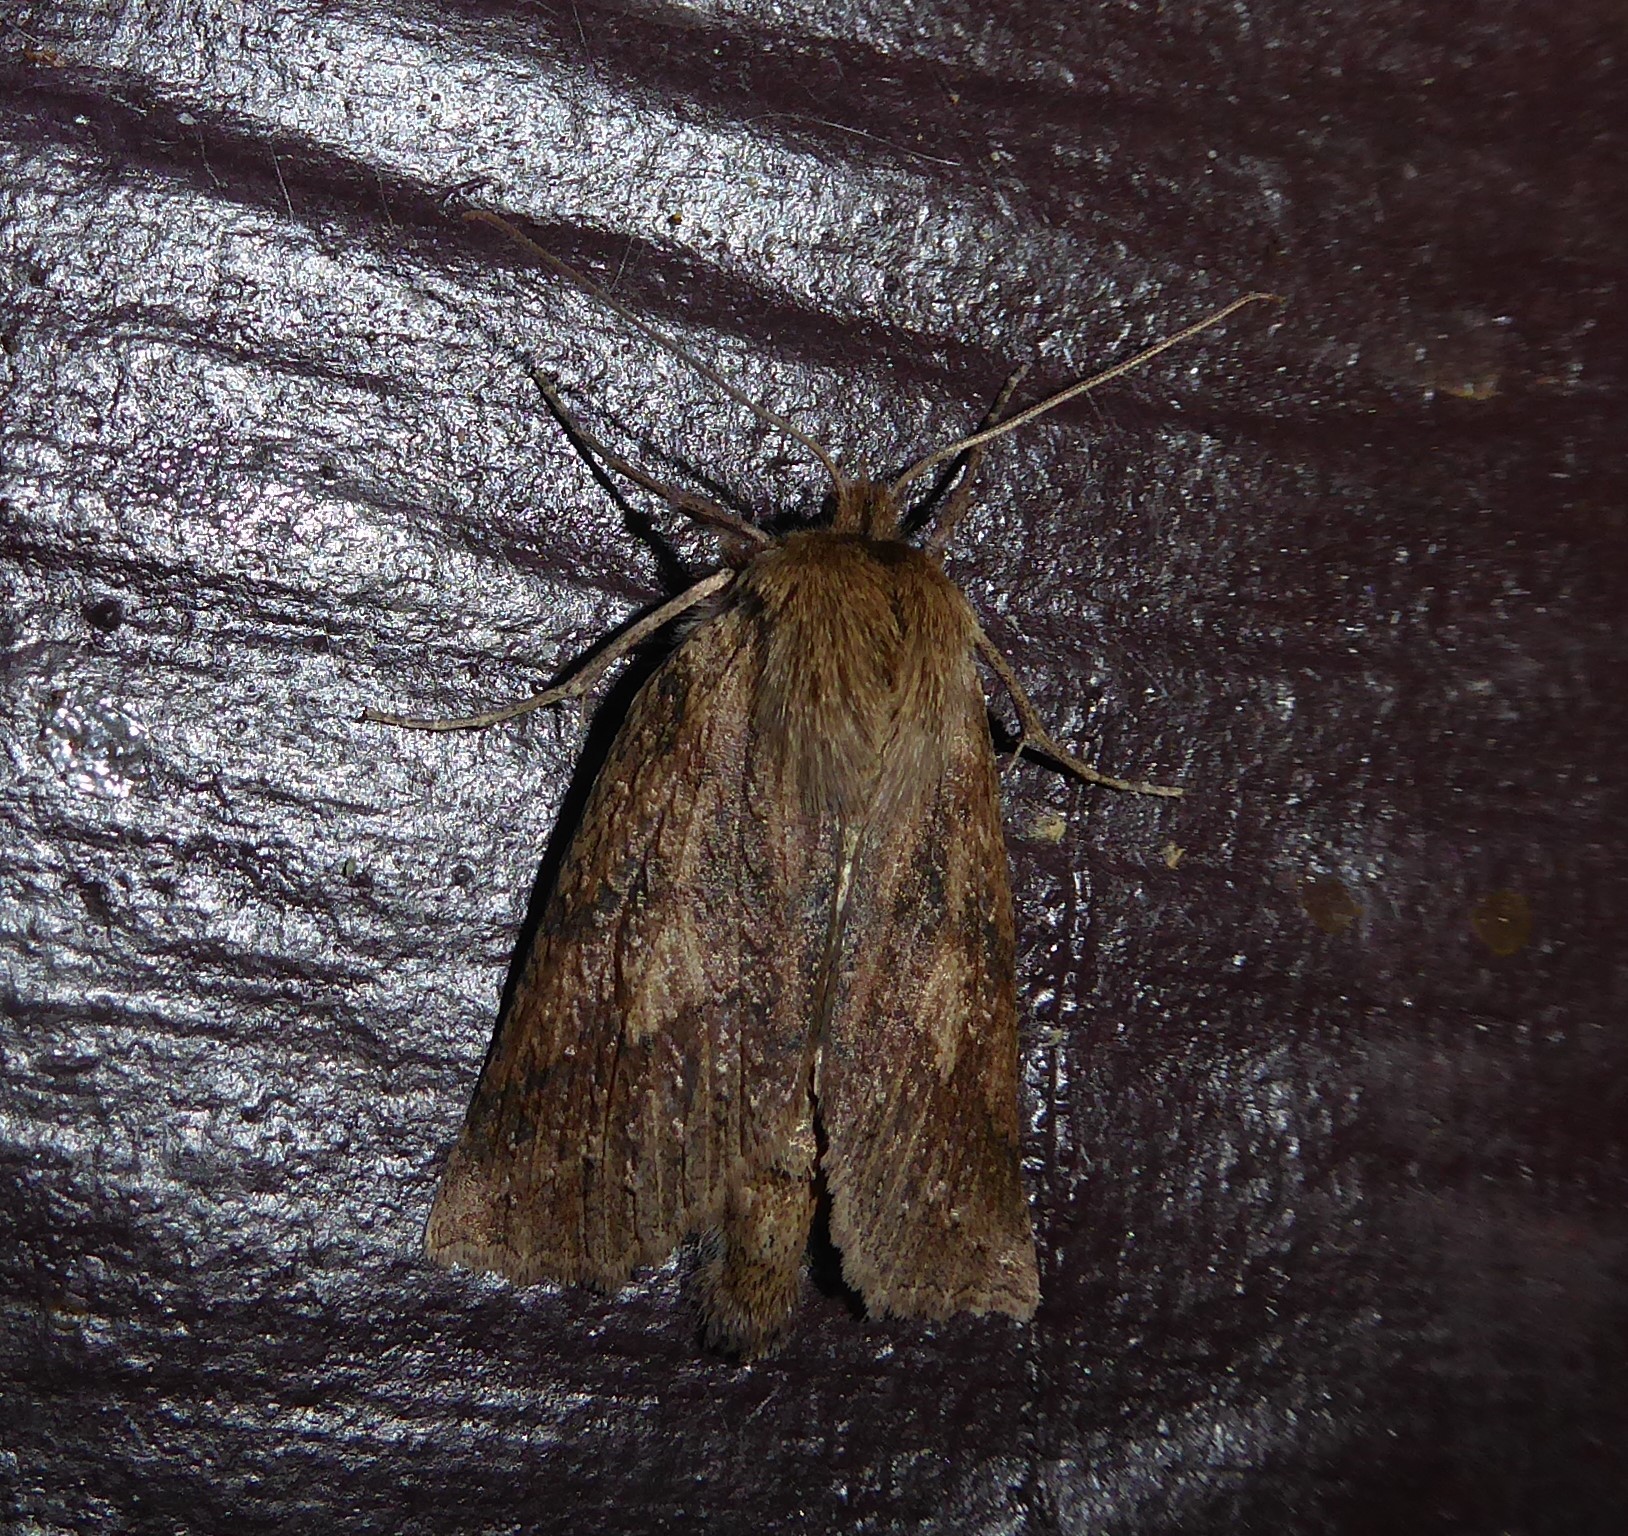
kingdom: Animalia
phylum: Arthropoda
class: Insecta
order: Lepidoptera
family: Geometridae
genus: Declana
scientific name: Declana leptomera
